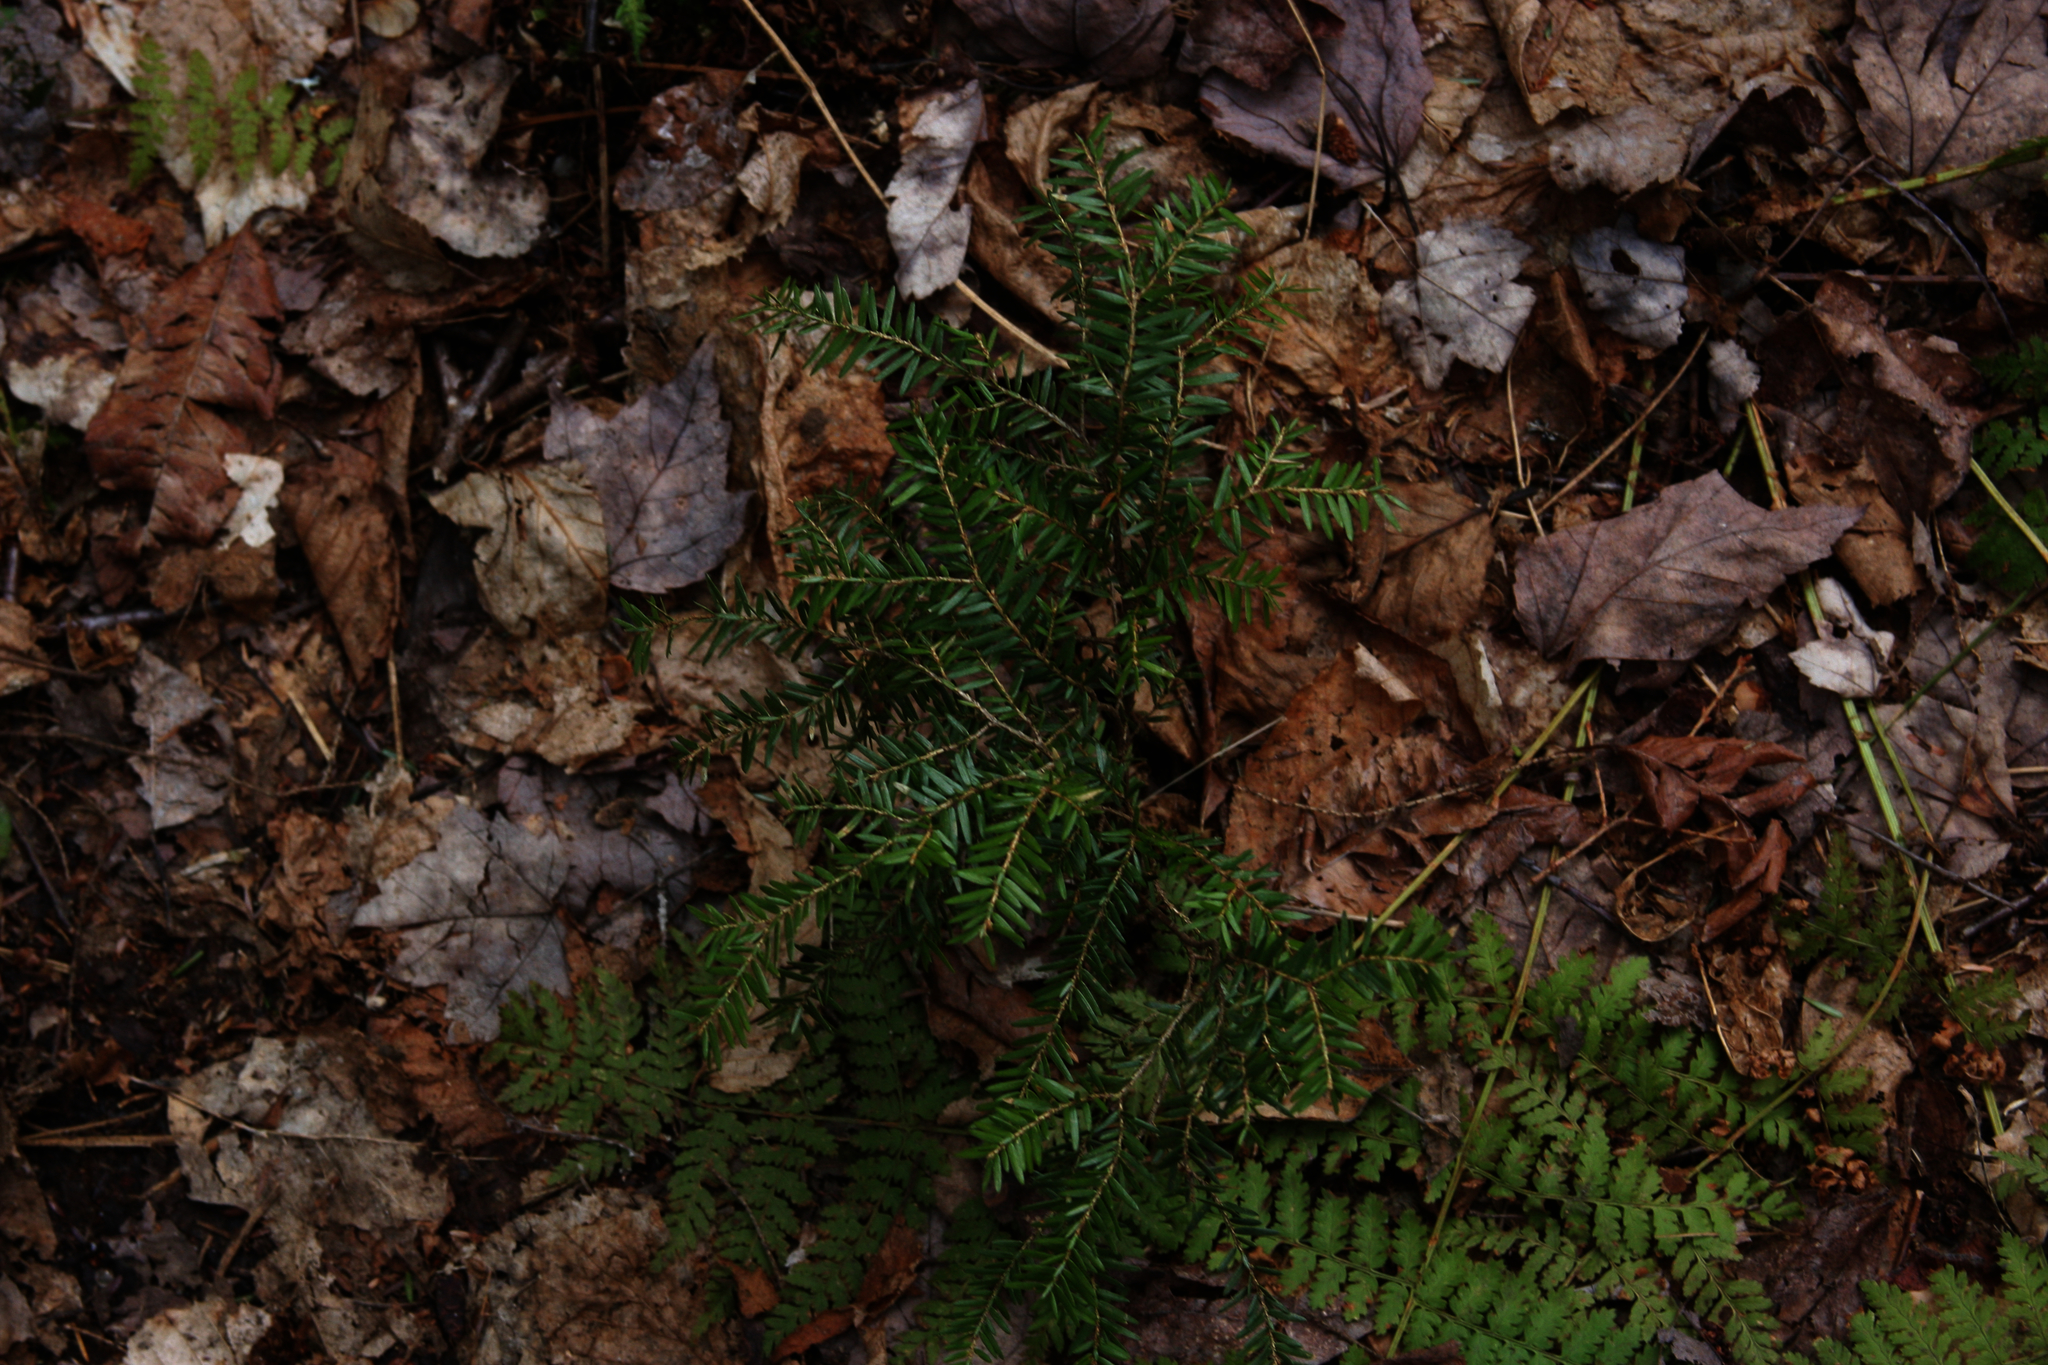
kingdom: Plantae
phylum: Tracheophyta
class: Pinopsida
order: Pinales
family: Pinaceae
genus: Tsuga
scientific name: Tsuga canadensis
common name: Eastern hemlock
